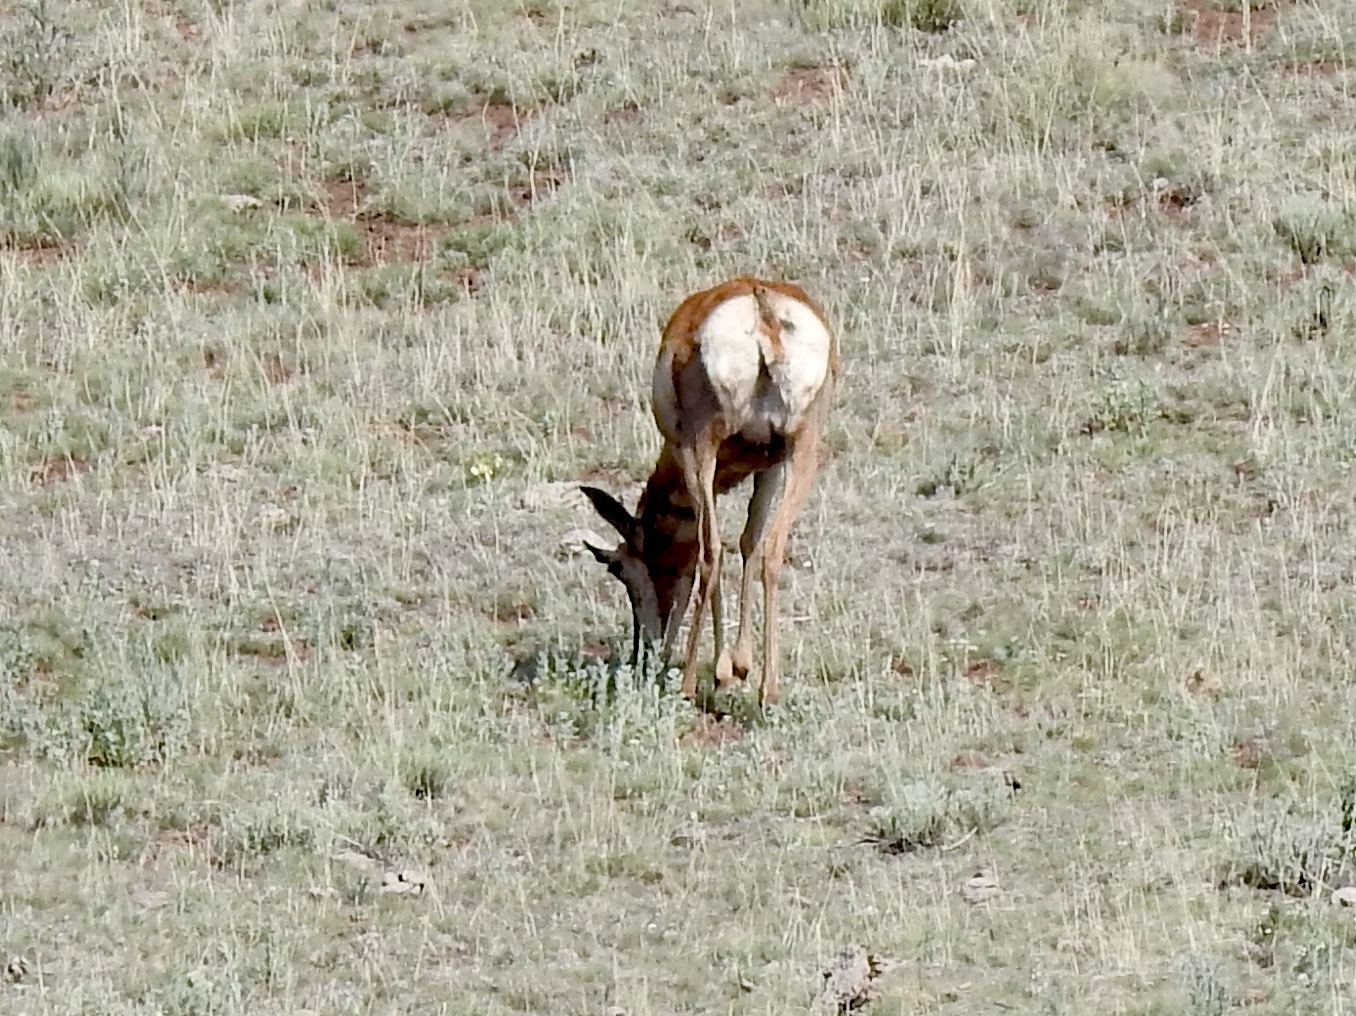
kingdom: Animalia
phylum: Chordata
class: Mammalia
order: Artiodactyla
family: Antilocapridae
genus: Antilocapra
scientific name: Antilocapra americana
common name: Pronghorn
